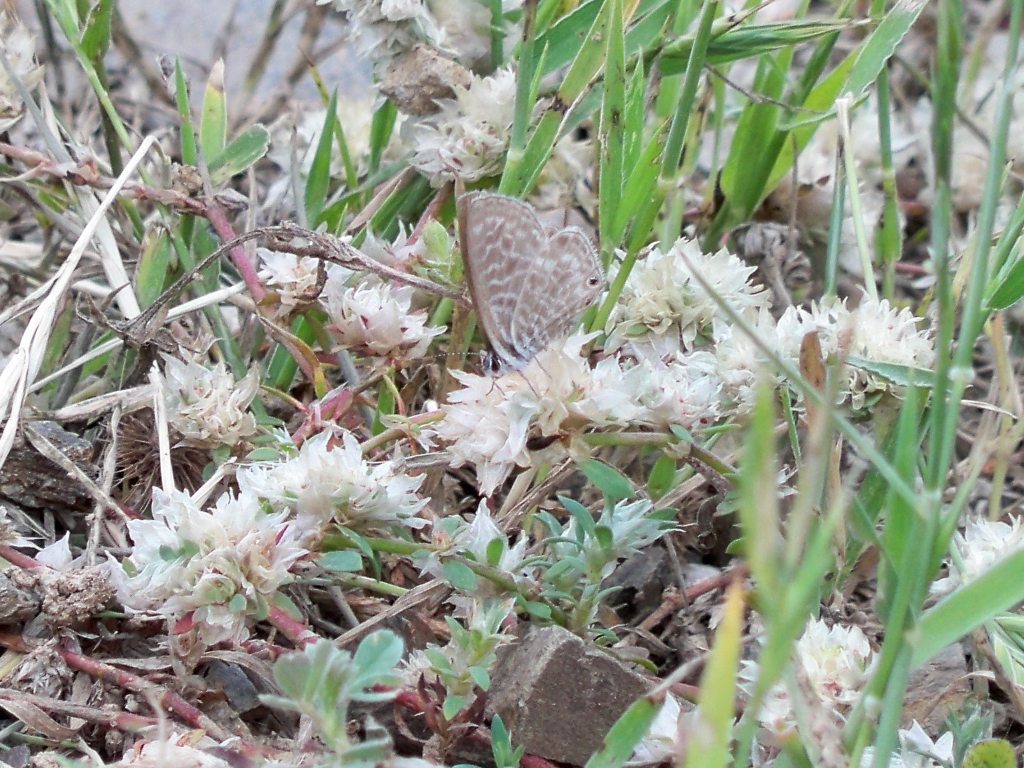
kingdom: Animalia
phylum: Arthropoda
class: Insecta
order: Lepidoptera
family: Lycaenidae
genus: Leptotes
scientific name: Leptotes pirithous
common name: Lang's short-tailed blue
